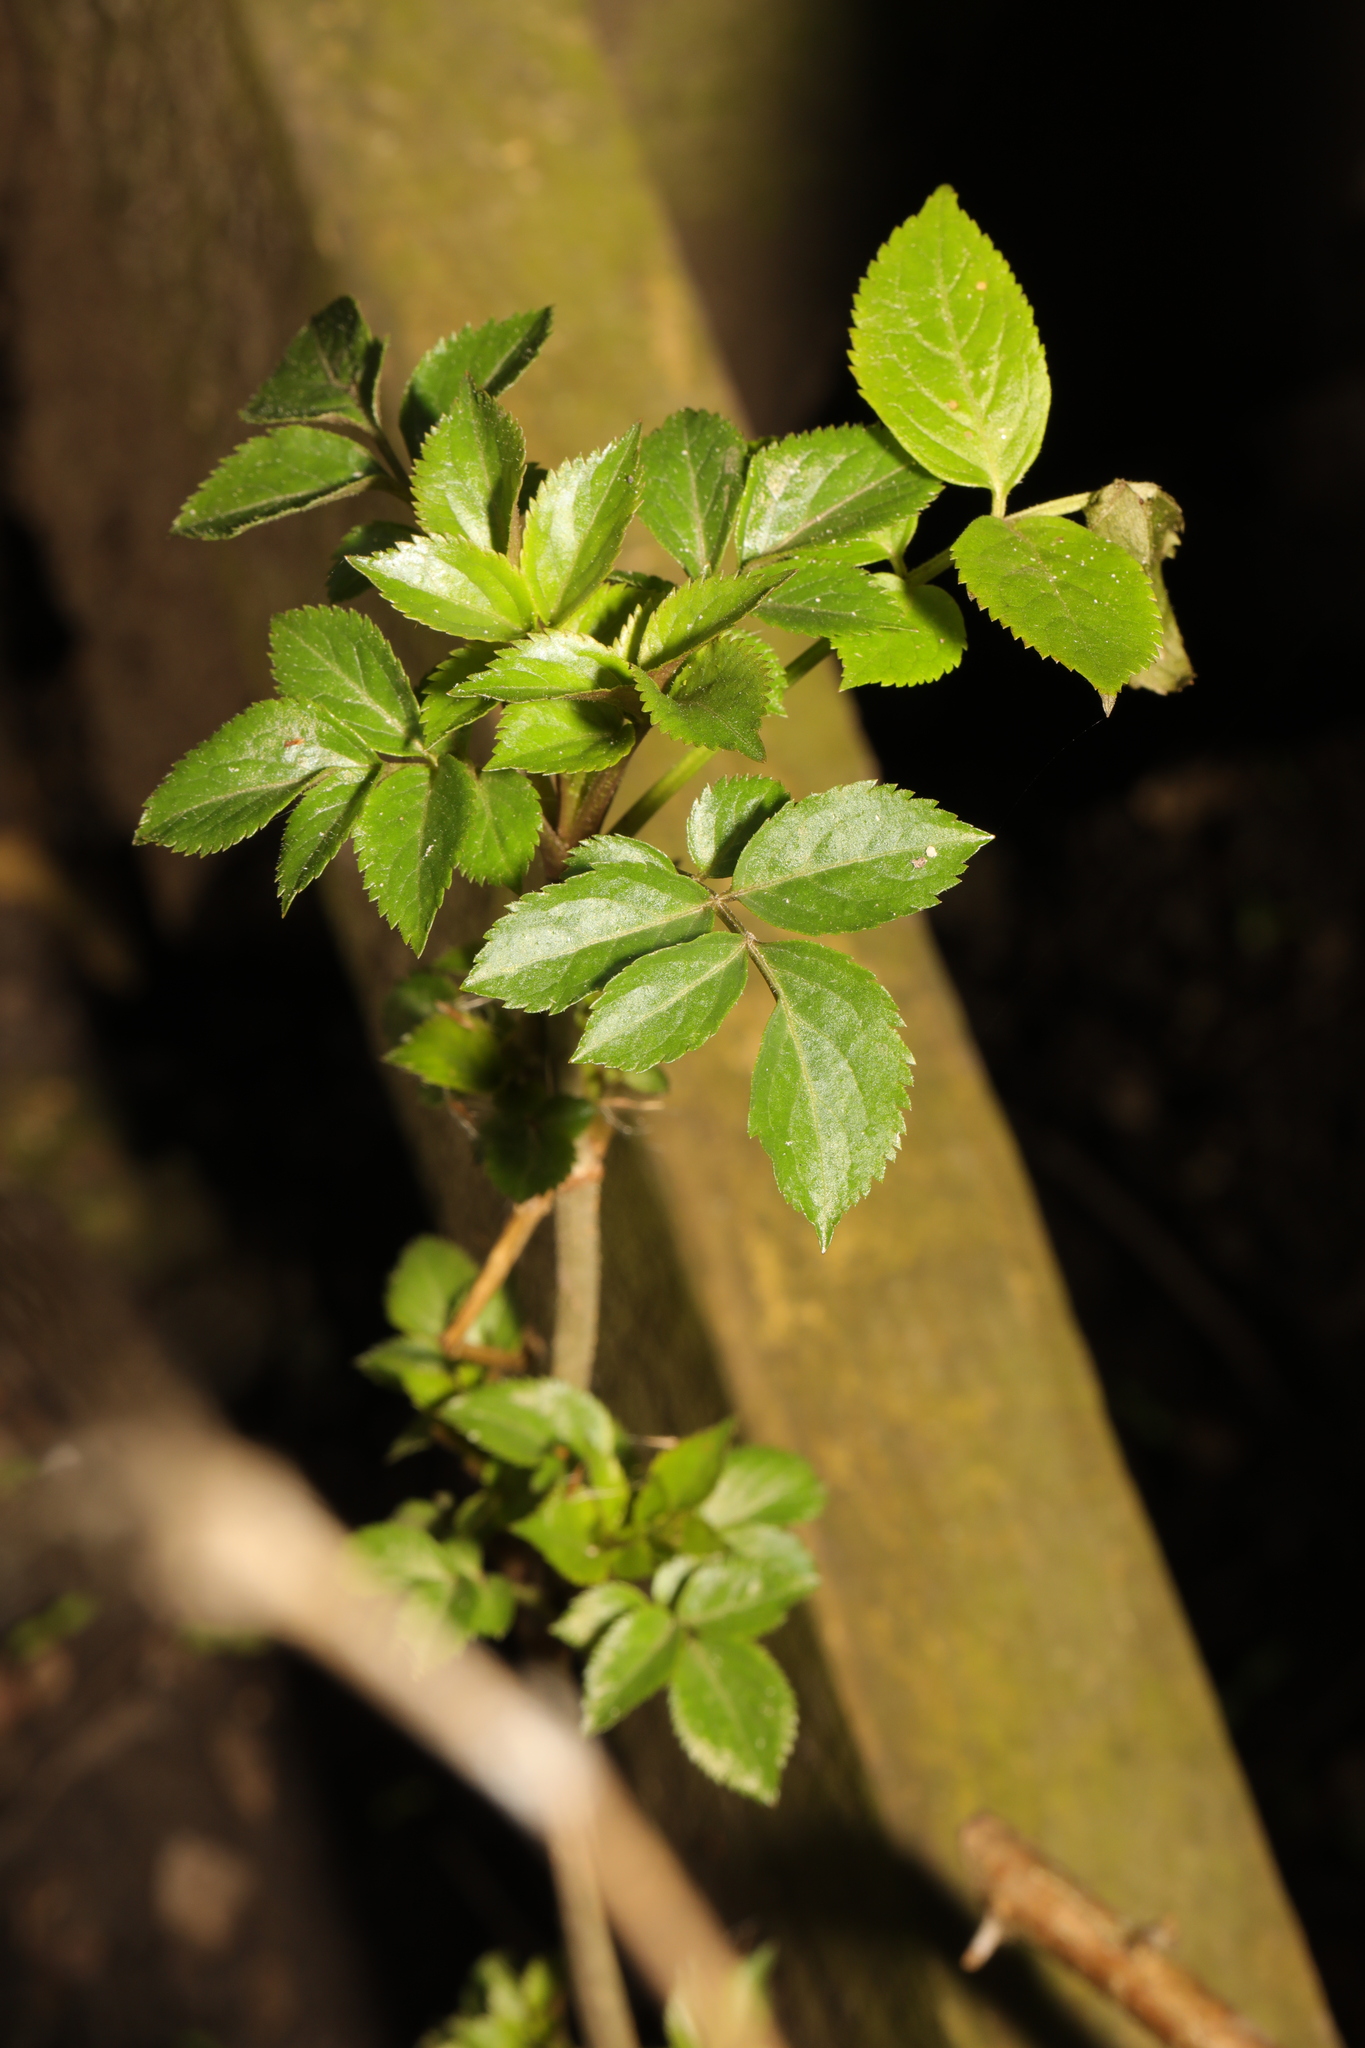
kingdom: Plantae
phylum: Tracheophyta
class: Magnoliopsida
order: Dipsacales
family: Viburnaceae
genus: Sambucus
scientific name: Sambucus nigra
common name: Elder
